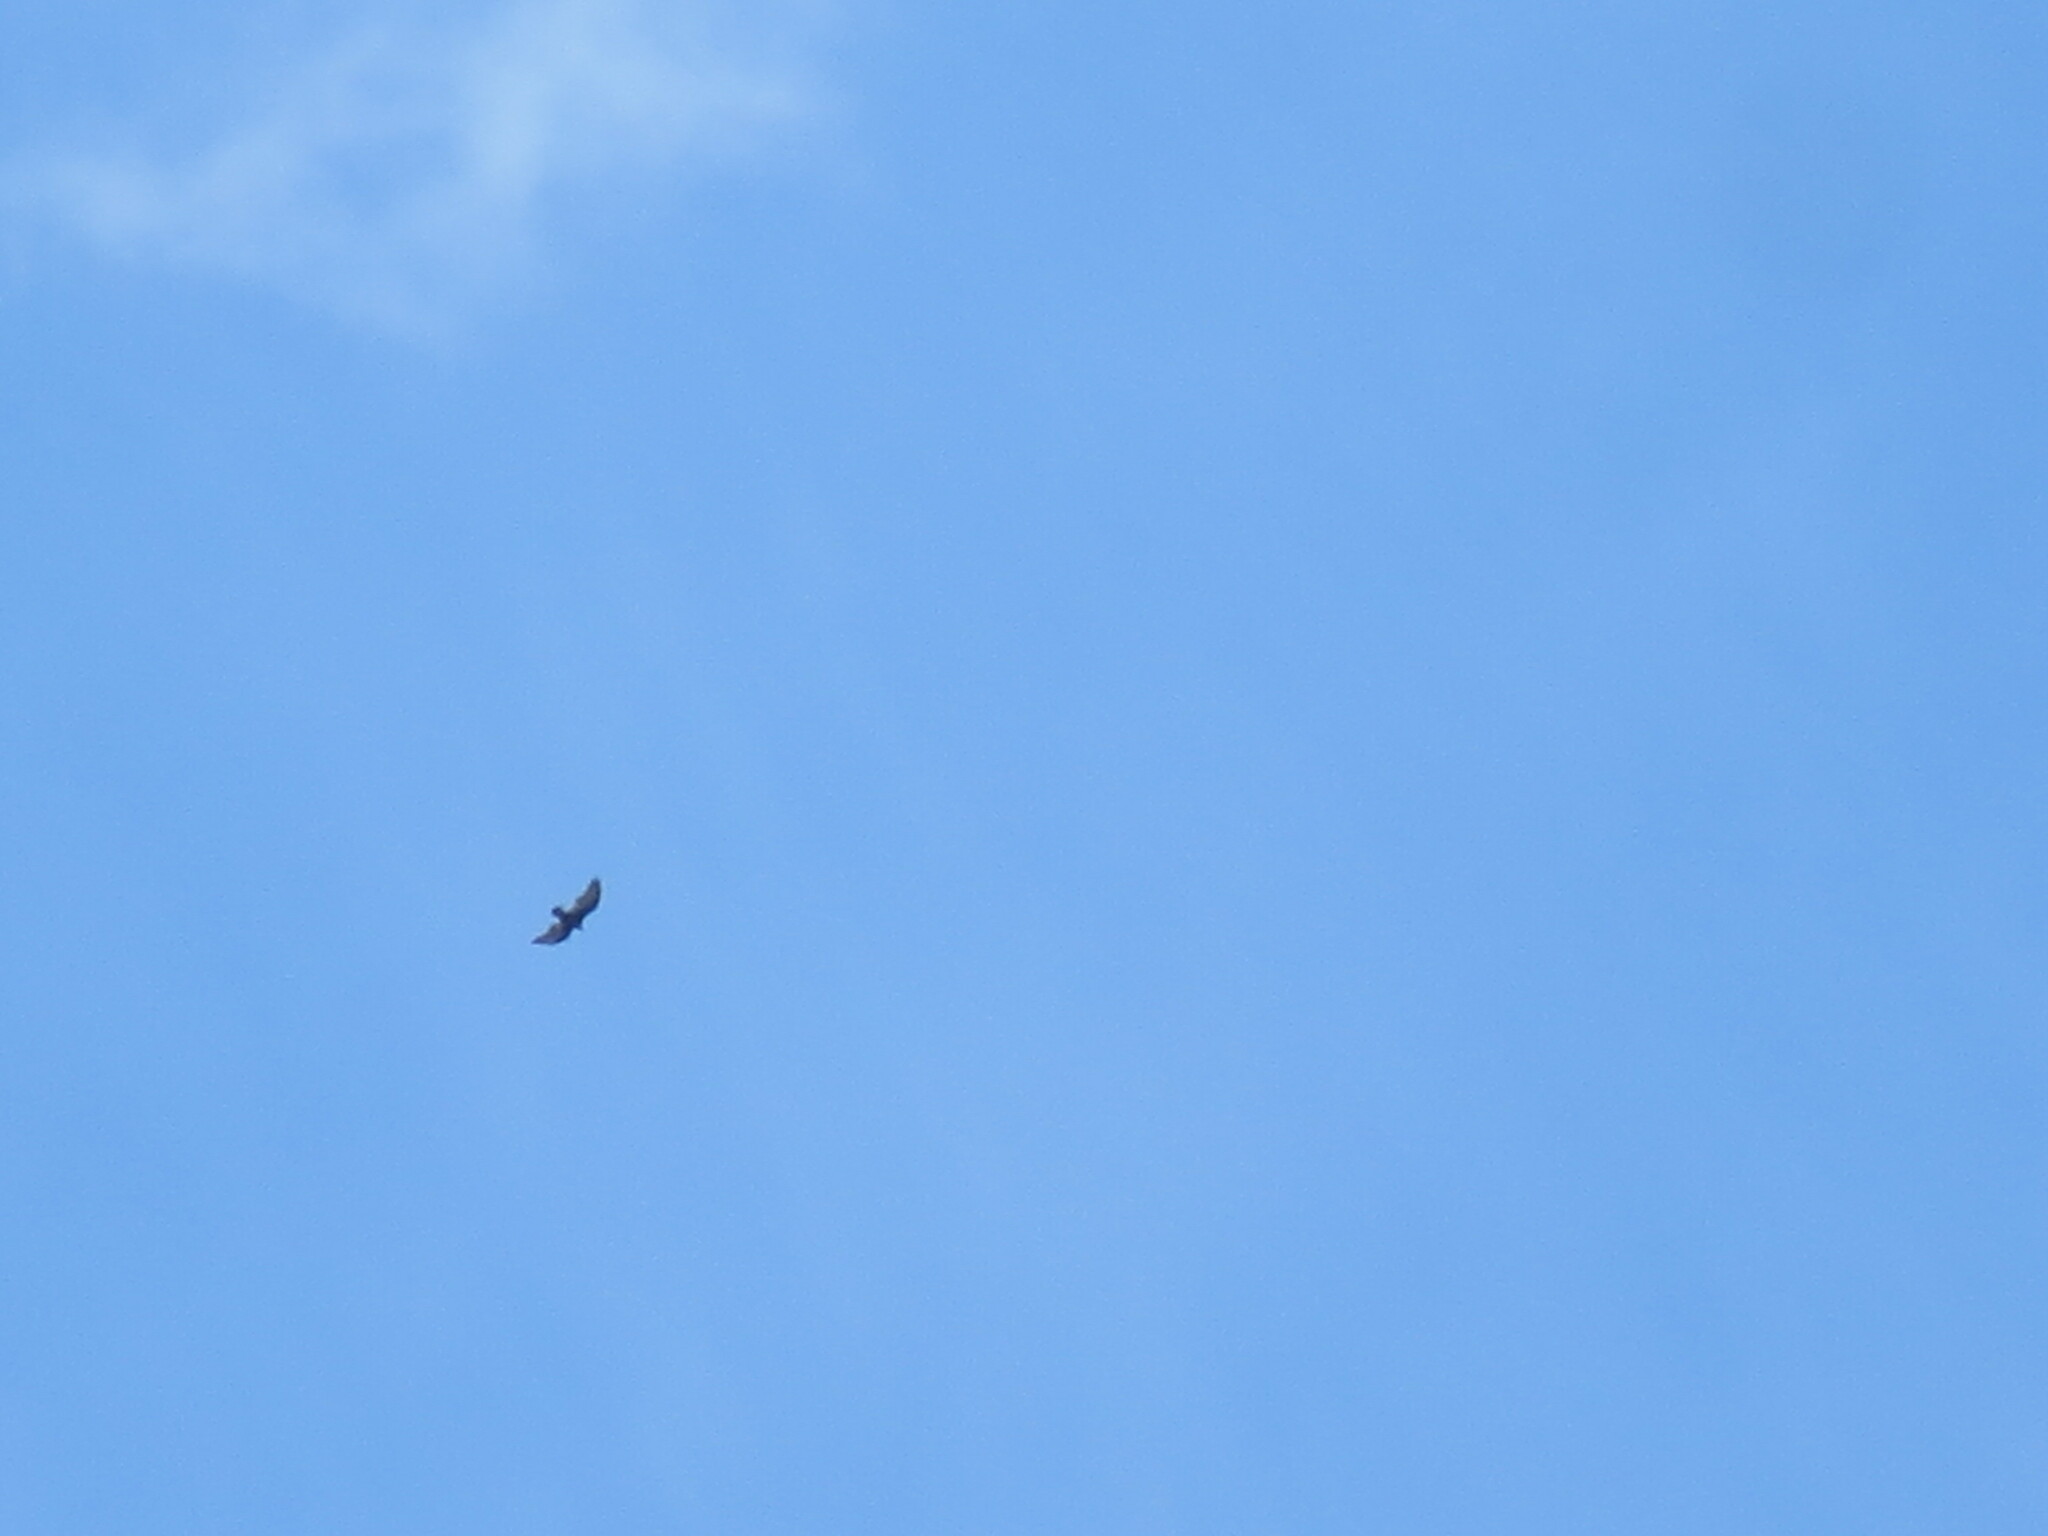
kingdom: Animalia
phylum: Chordata
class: Aves
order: Accipitriformes
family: Cathartidae
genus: Cathartes
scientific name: Cathartes aura
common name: Turkey vulture
